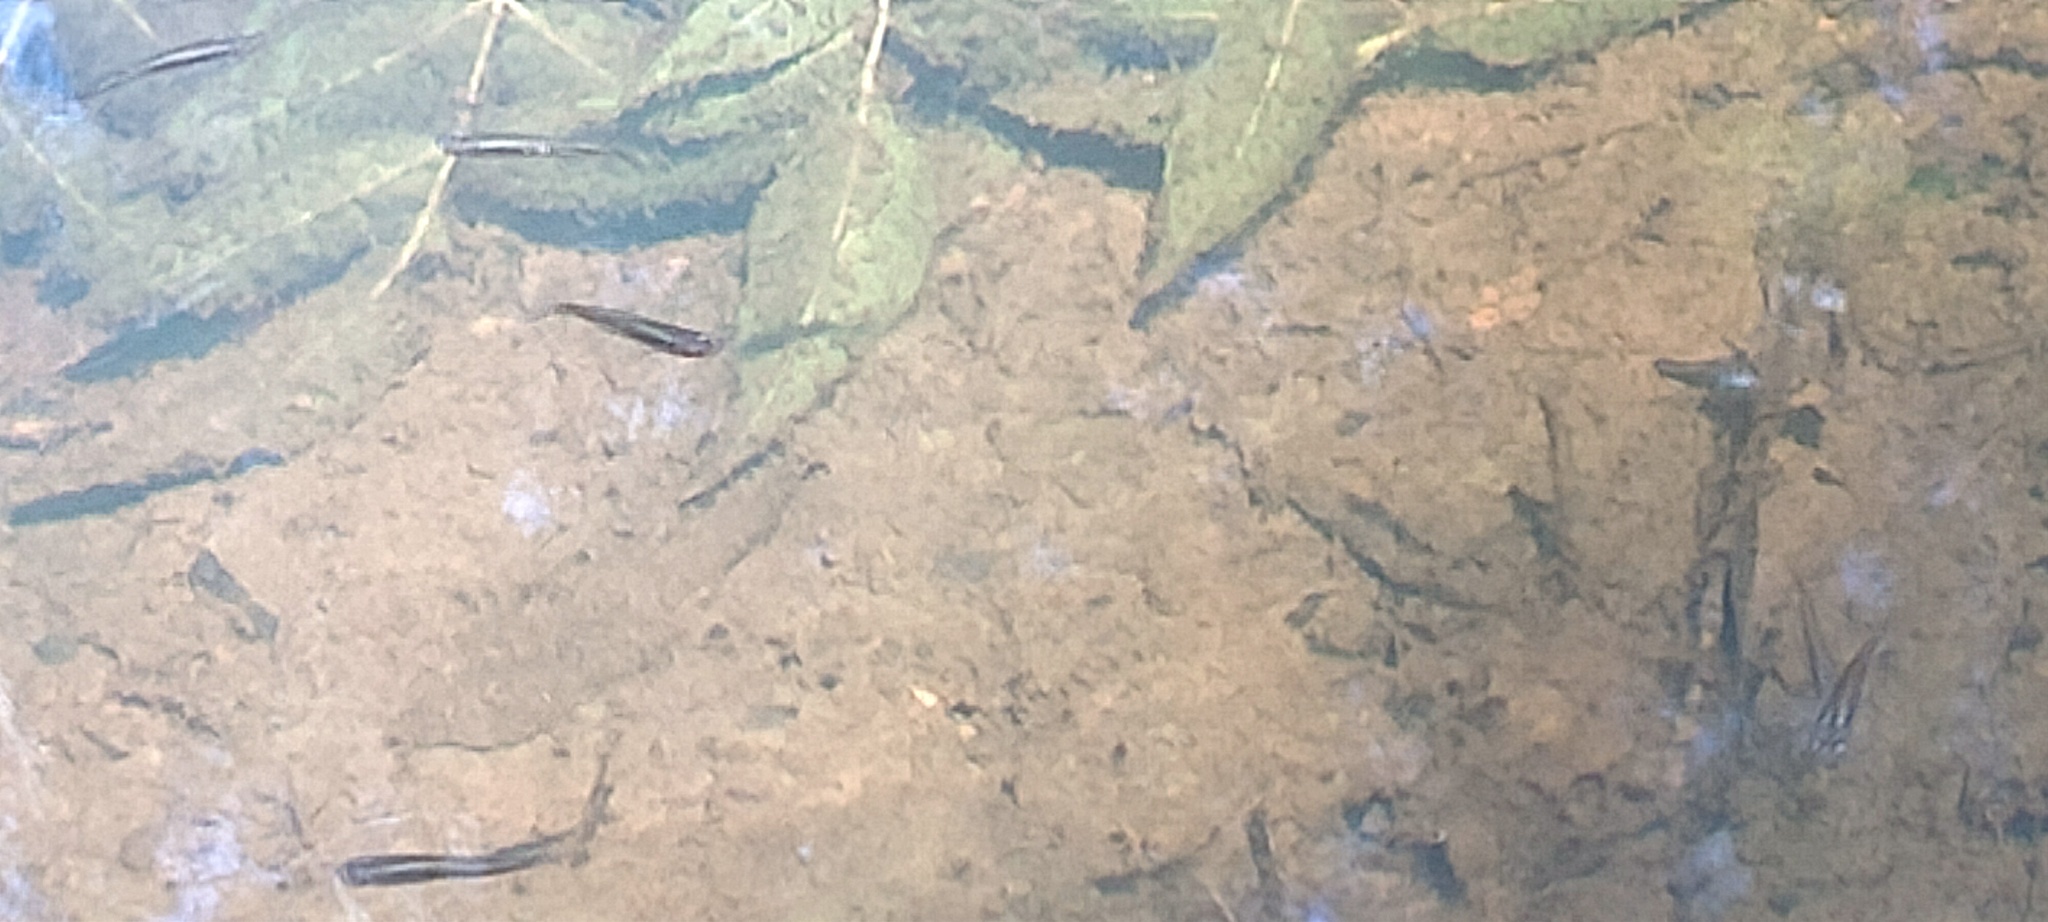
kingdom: Animalia
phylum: Chordata
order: Cyprinodontiformes
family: Poeciliidae
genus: Gambusia
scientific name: Gambusia holbrooki
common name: Eastern mosquitofish
